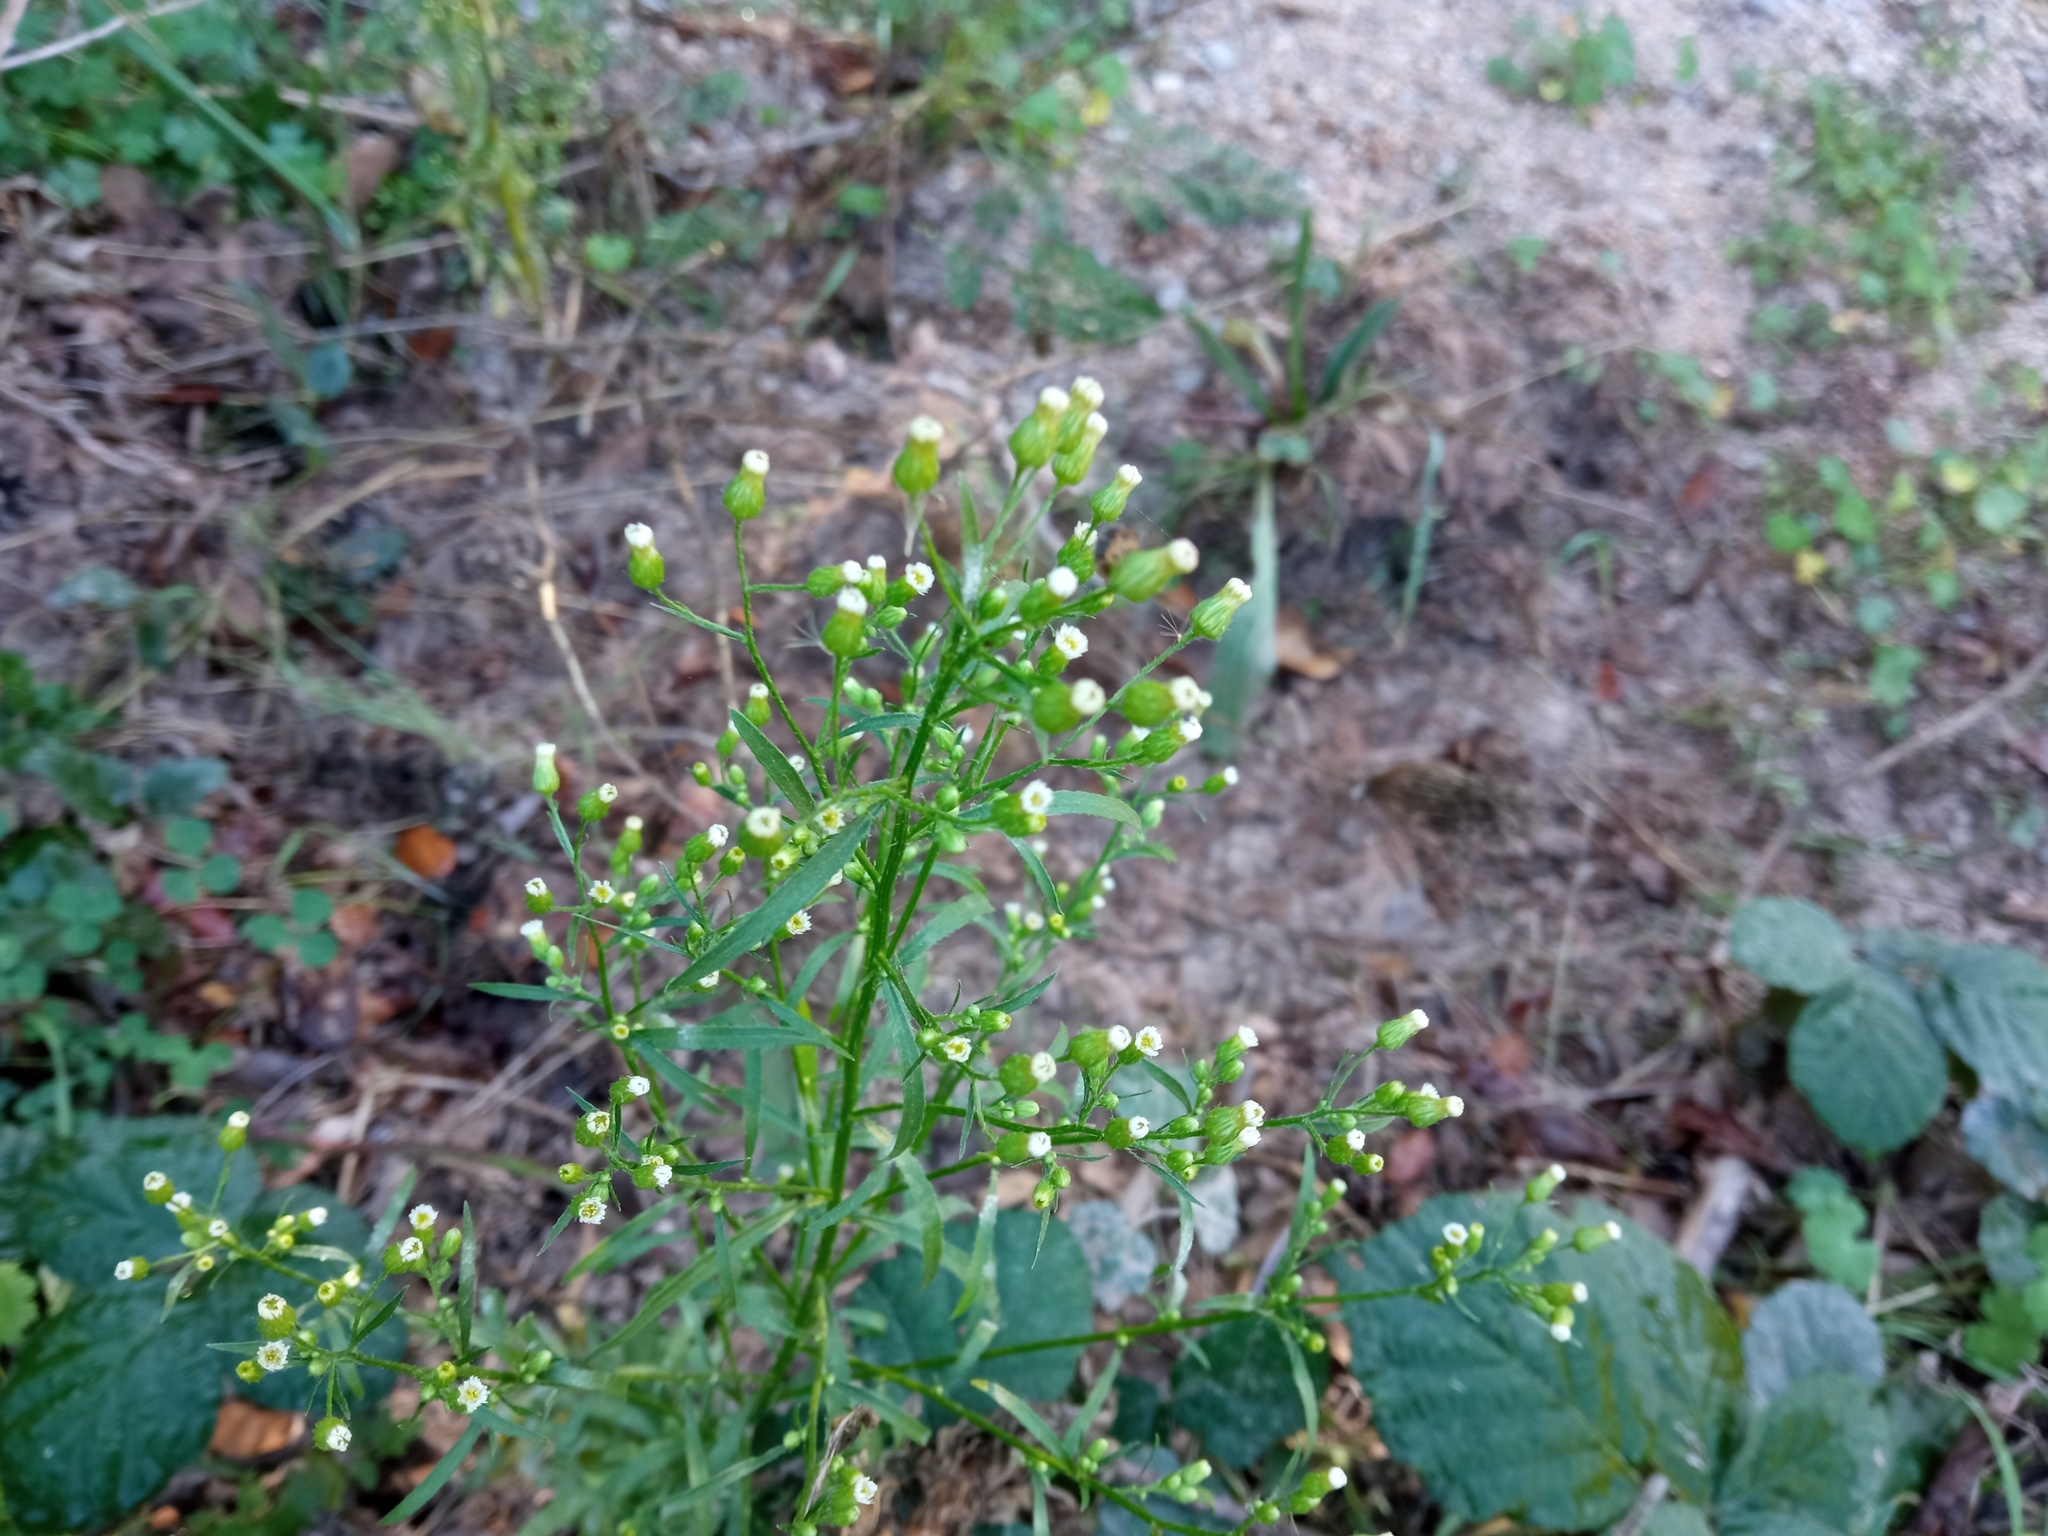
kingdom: Plantae
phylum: Tracheophyta
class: Magnoliopsida
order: Asterales
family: Asteraceae
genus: Erigeron
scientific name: Erigeron canadensis
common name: Canadian fleabane
